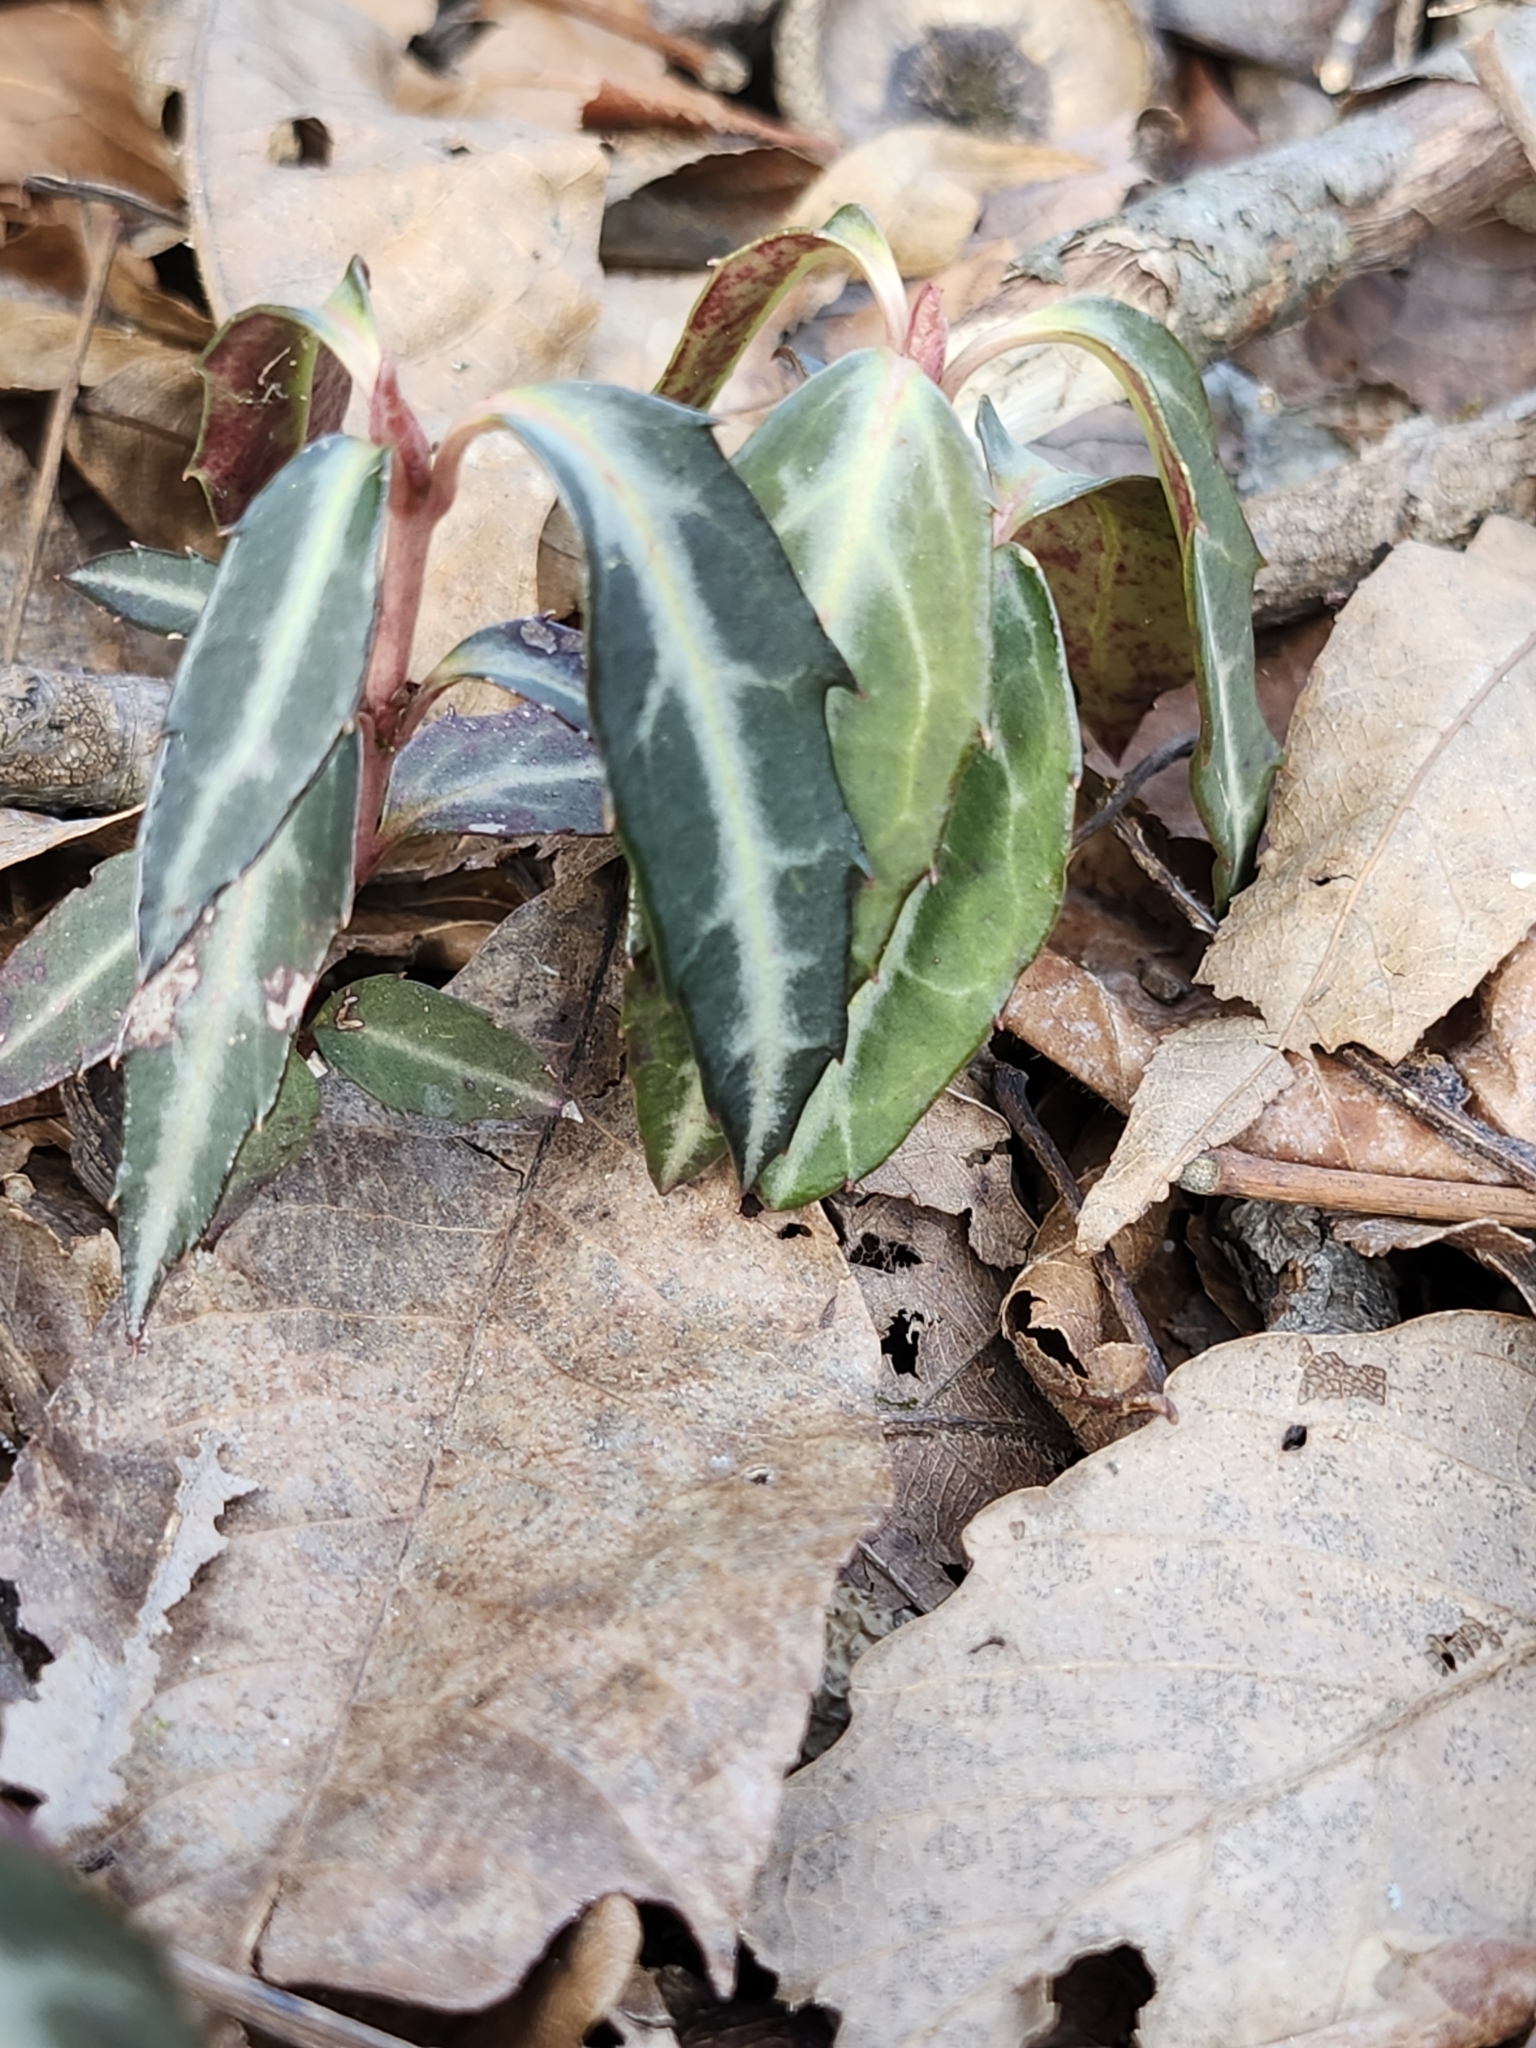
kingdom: Plantae
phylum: Tracheophyta
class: Magnoliopsida
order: Ericales
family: Ericaceae
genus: Chimaphila
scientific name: Chimaphila maculata
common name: Spotted pipsissewa
